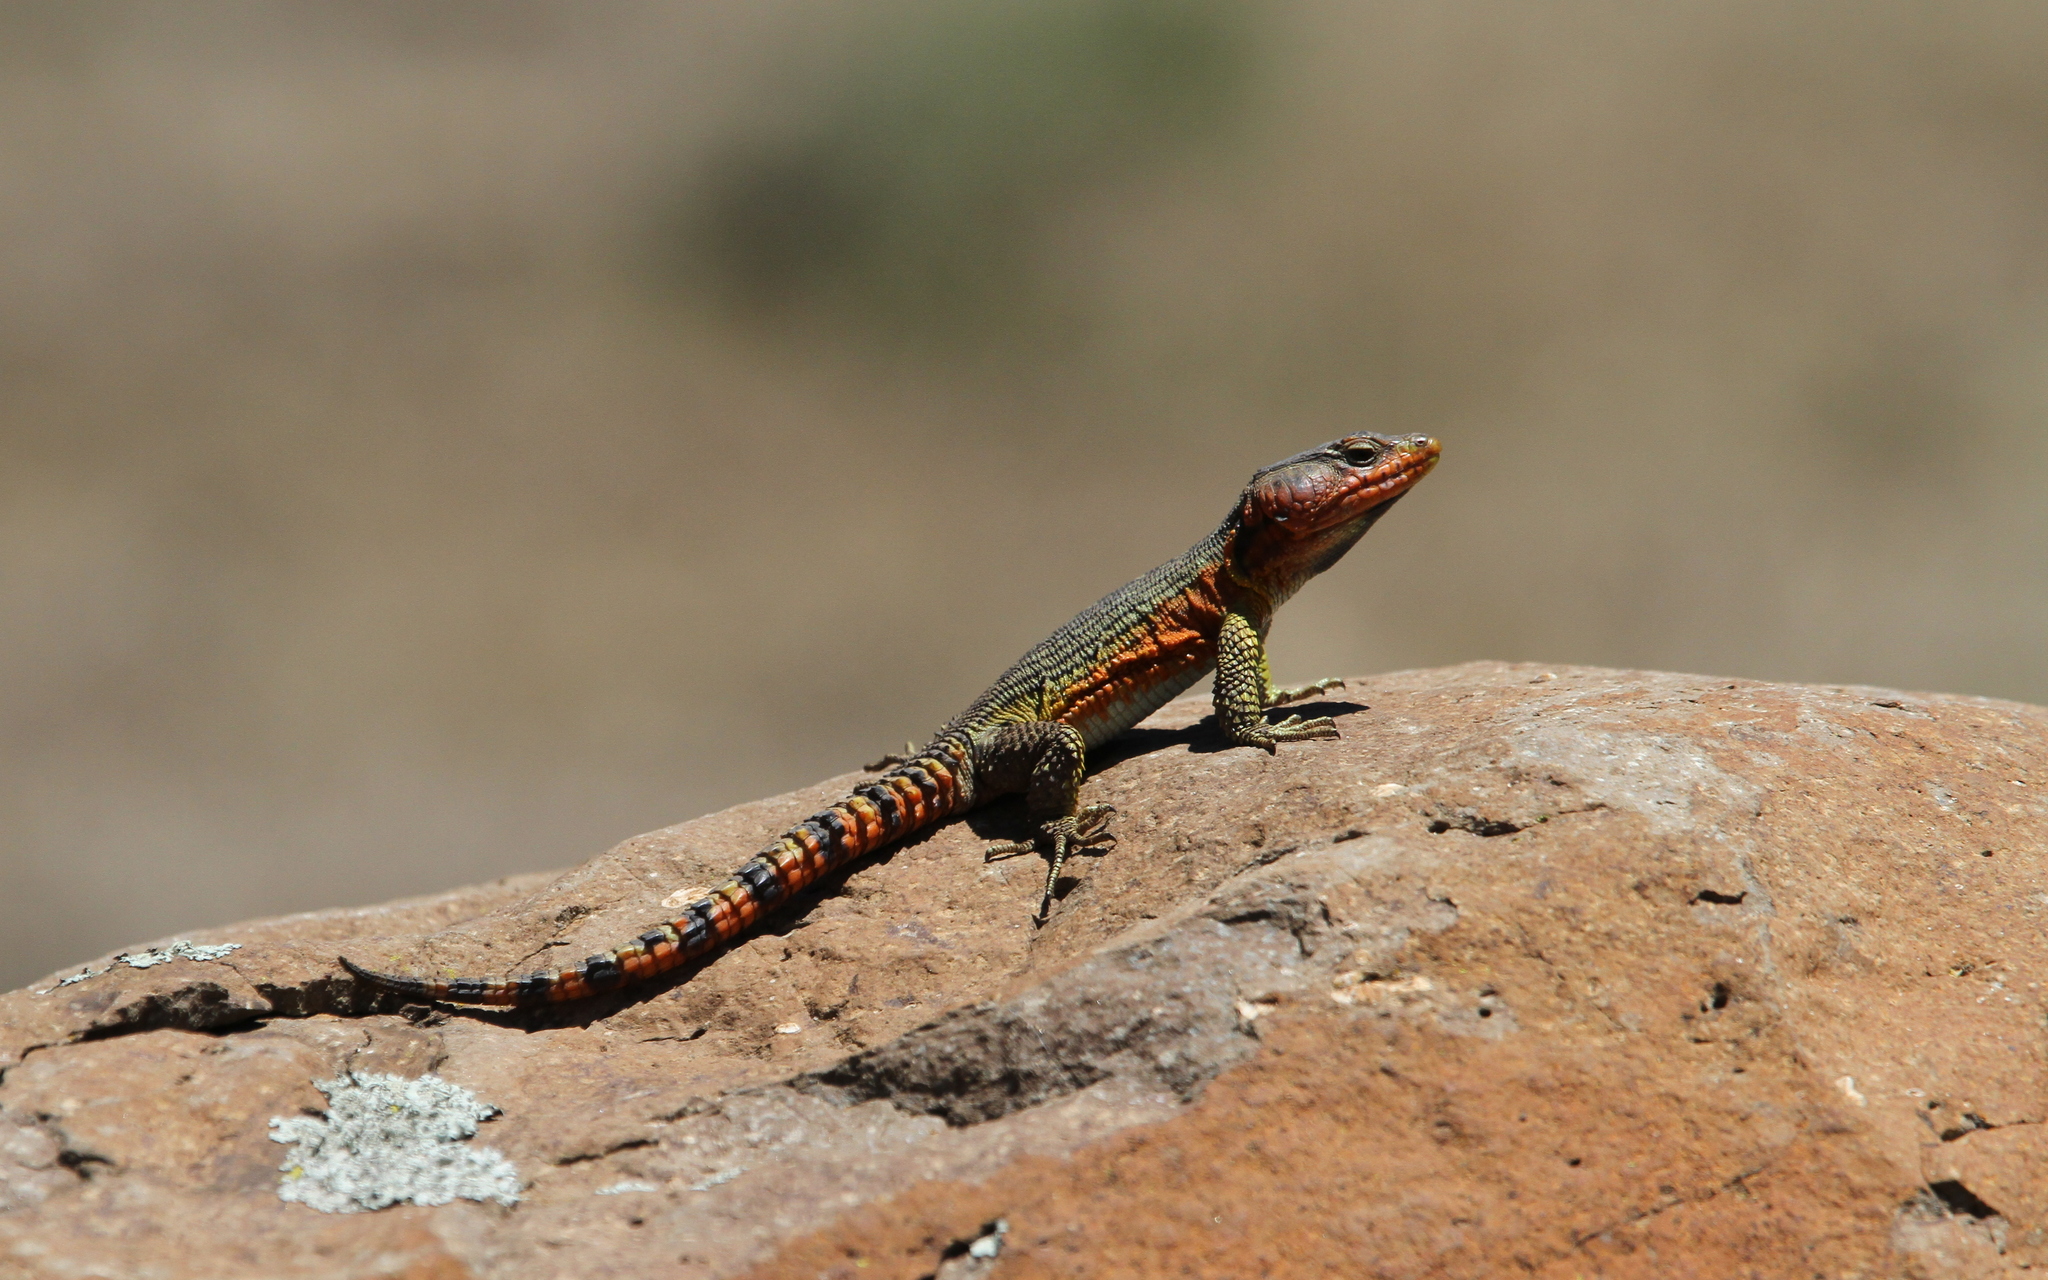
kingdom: Animalia
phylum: Chordata
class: Squamata
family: Cordylidae
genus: Pseudocordylus
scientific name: Pseudocordylus subviridis
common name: Drakensberg crag lizard
